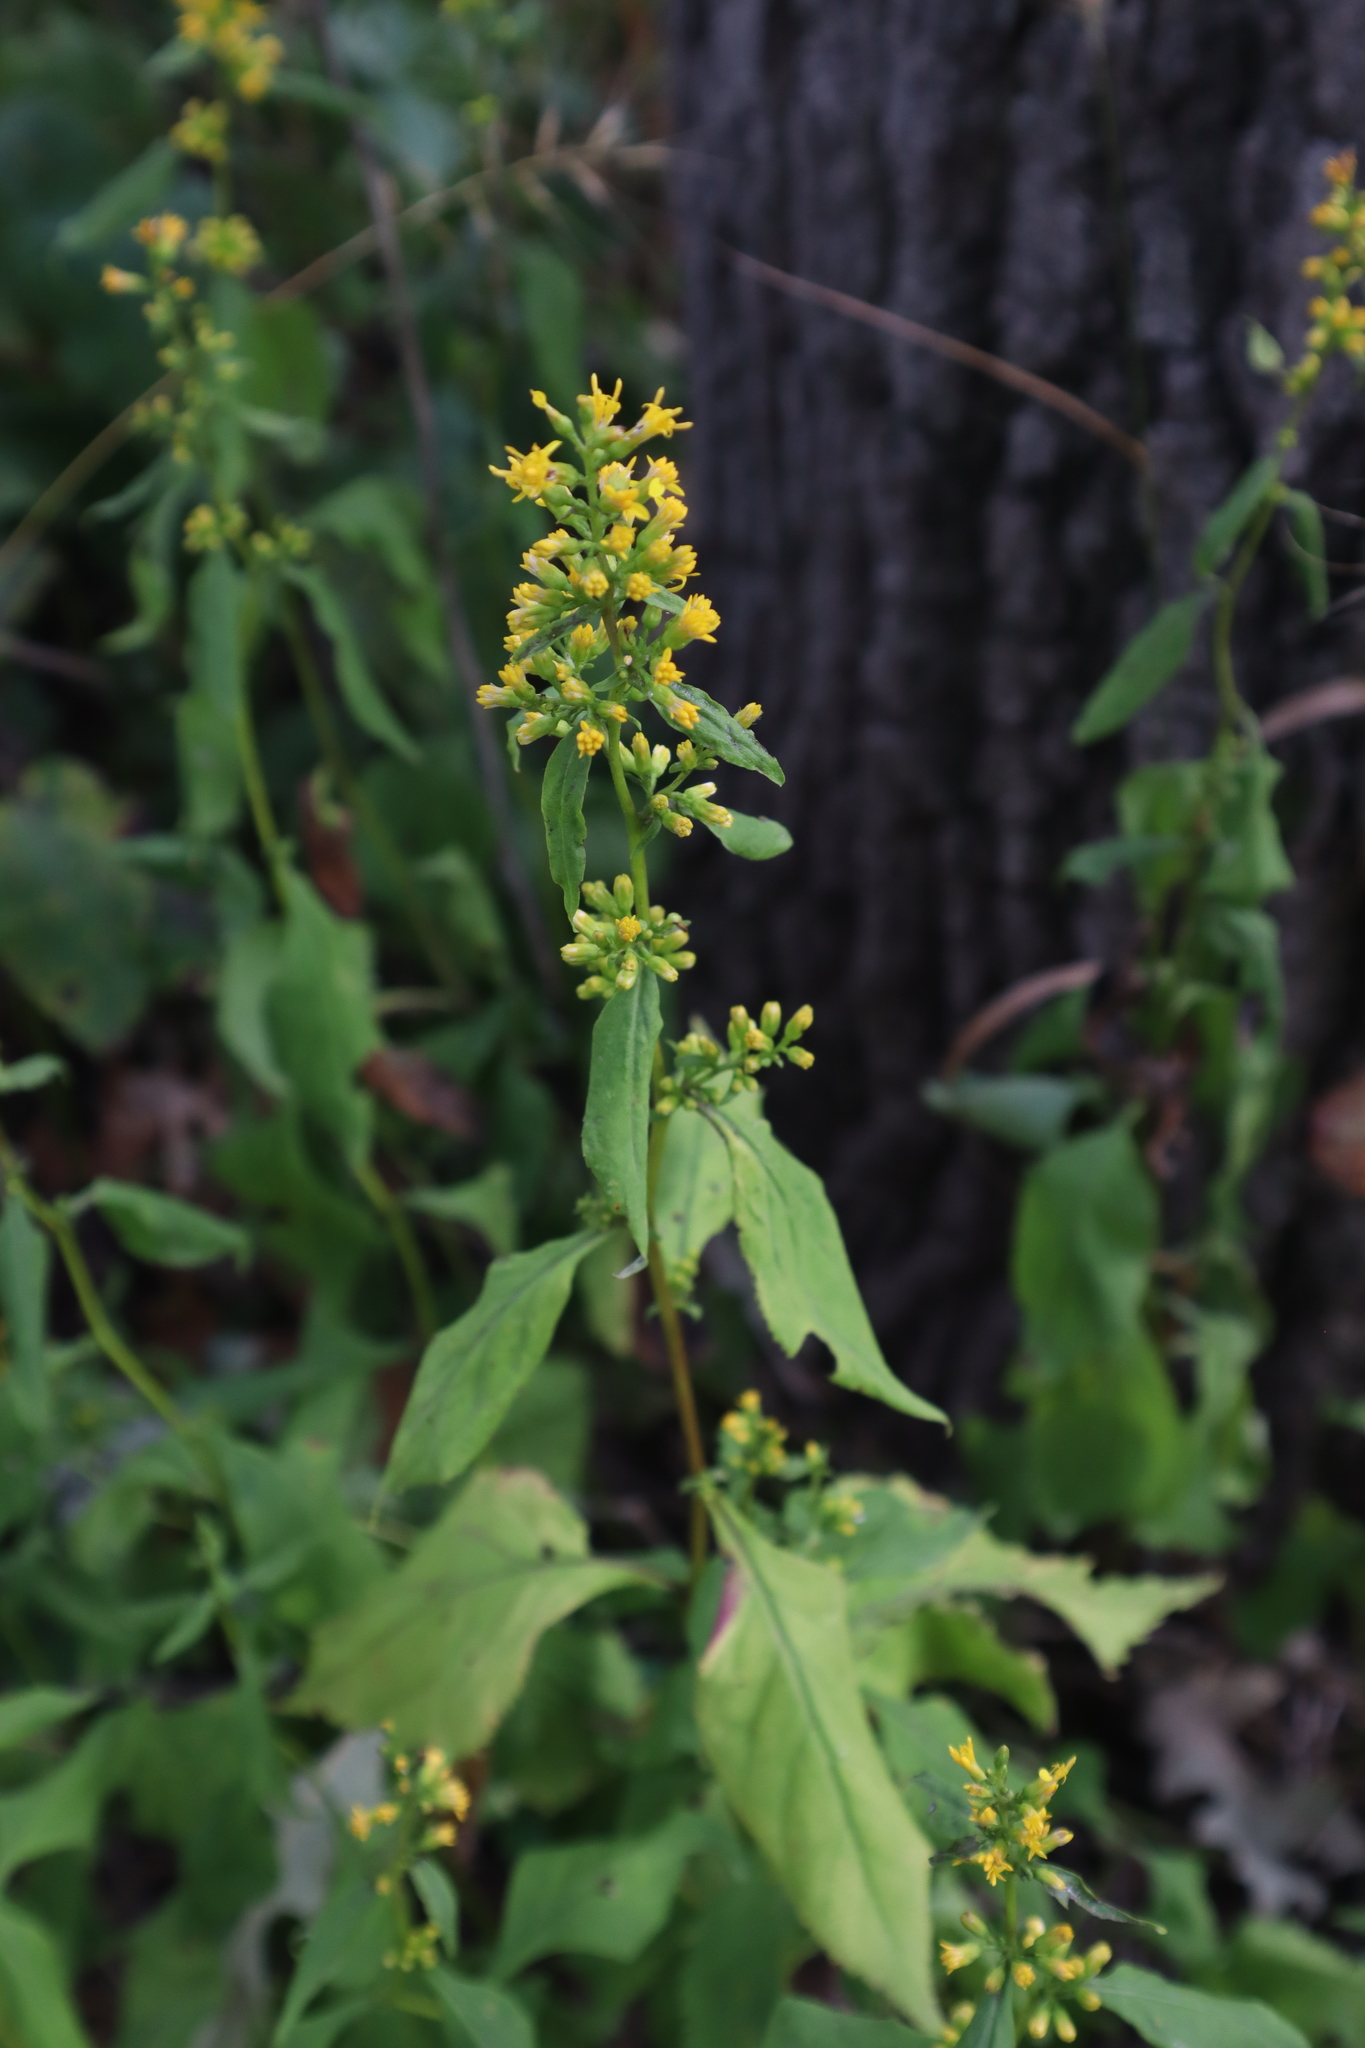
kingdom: Plantae
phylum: Tracheophyta
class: Magnoliopsida
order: Asterales
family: Asteraceae
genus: Solidago
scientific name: Solidago flexicaulis
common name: Zig-zag goldenrod
